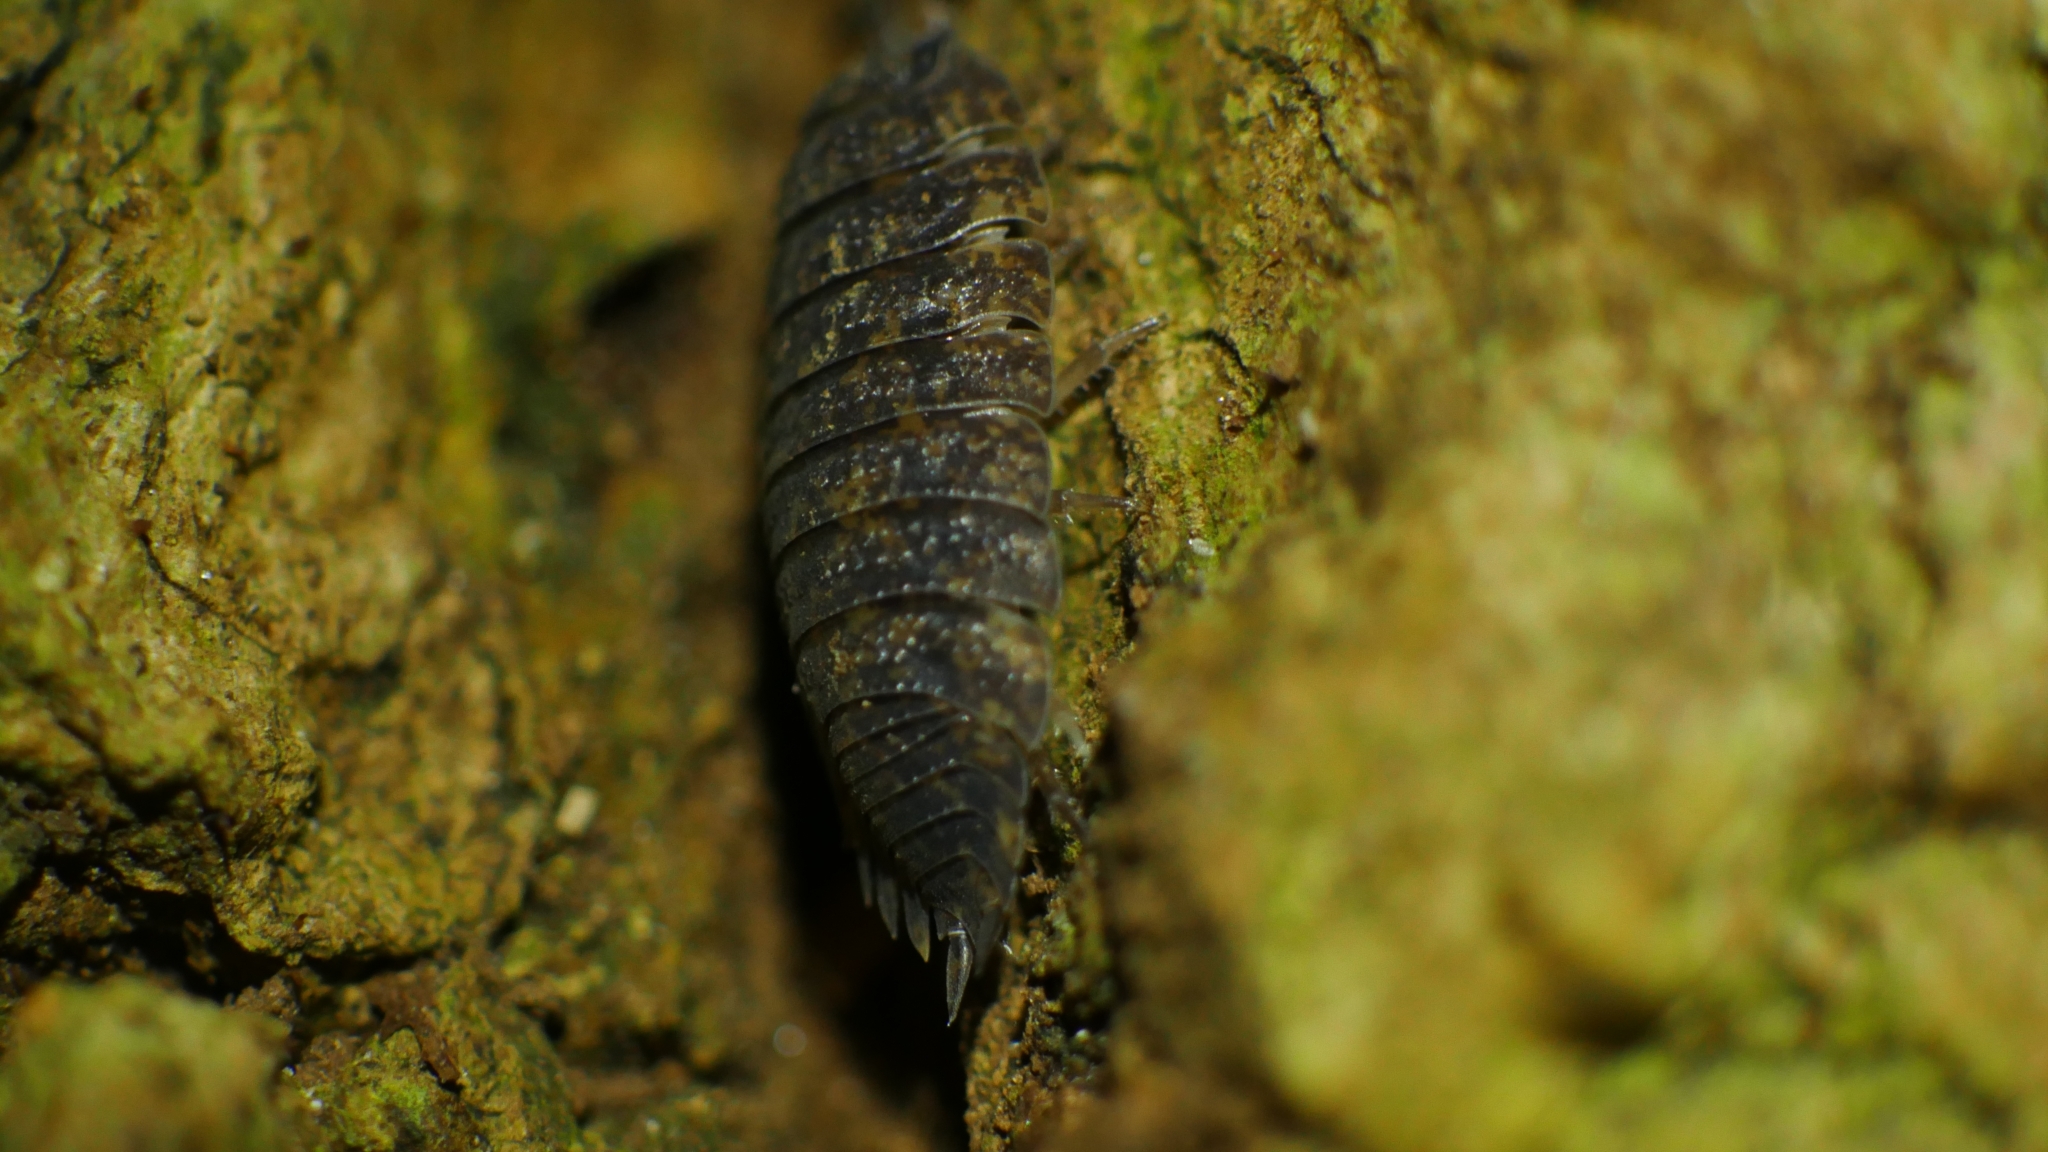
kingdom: Animalia
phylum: Arthropoda
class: Malacostraca
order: Isopoda
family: Porcellionidae
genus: Porcellio
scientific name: Porcellio scaber
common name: Common rough woodlouse
